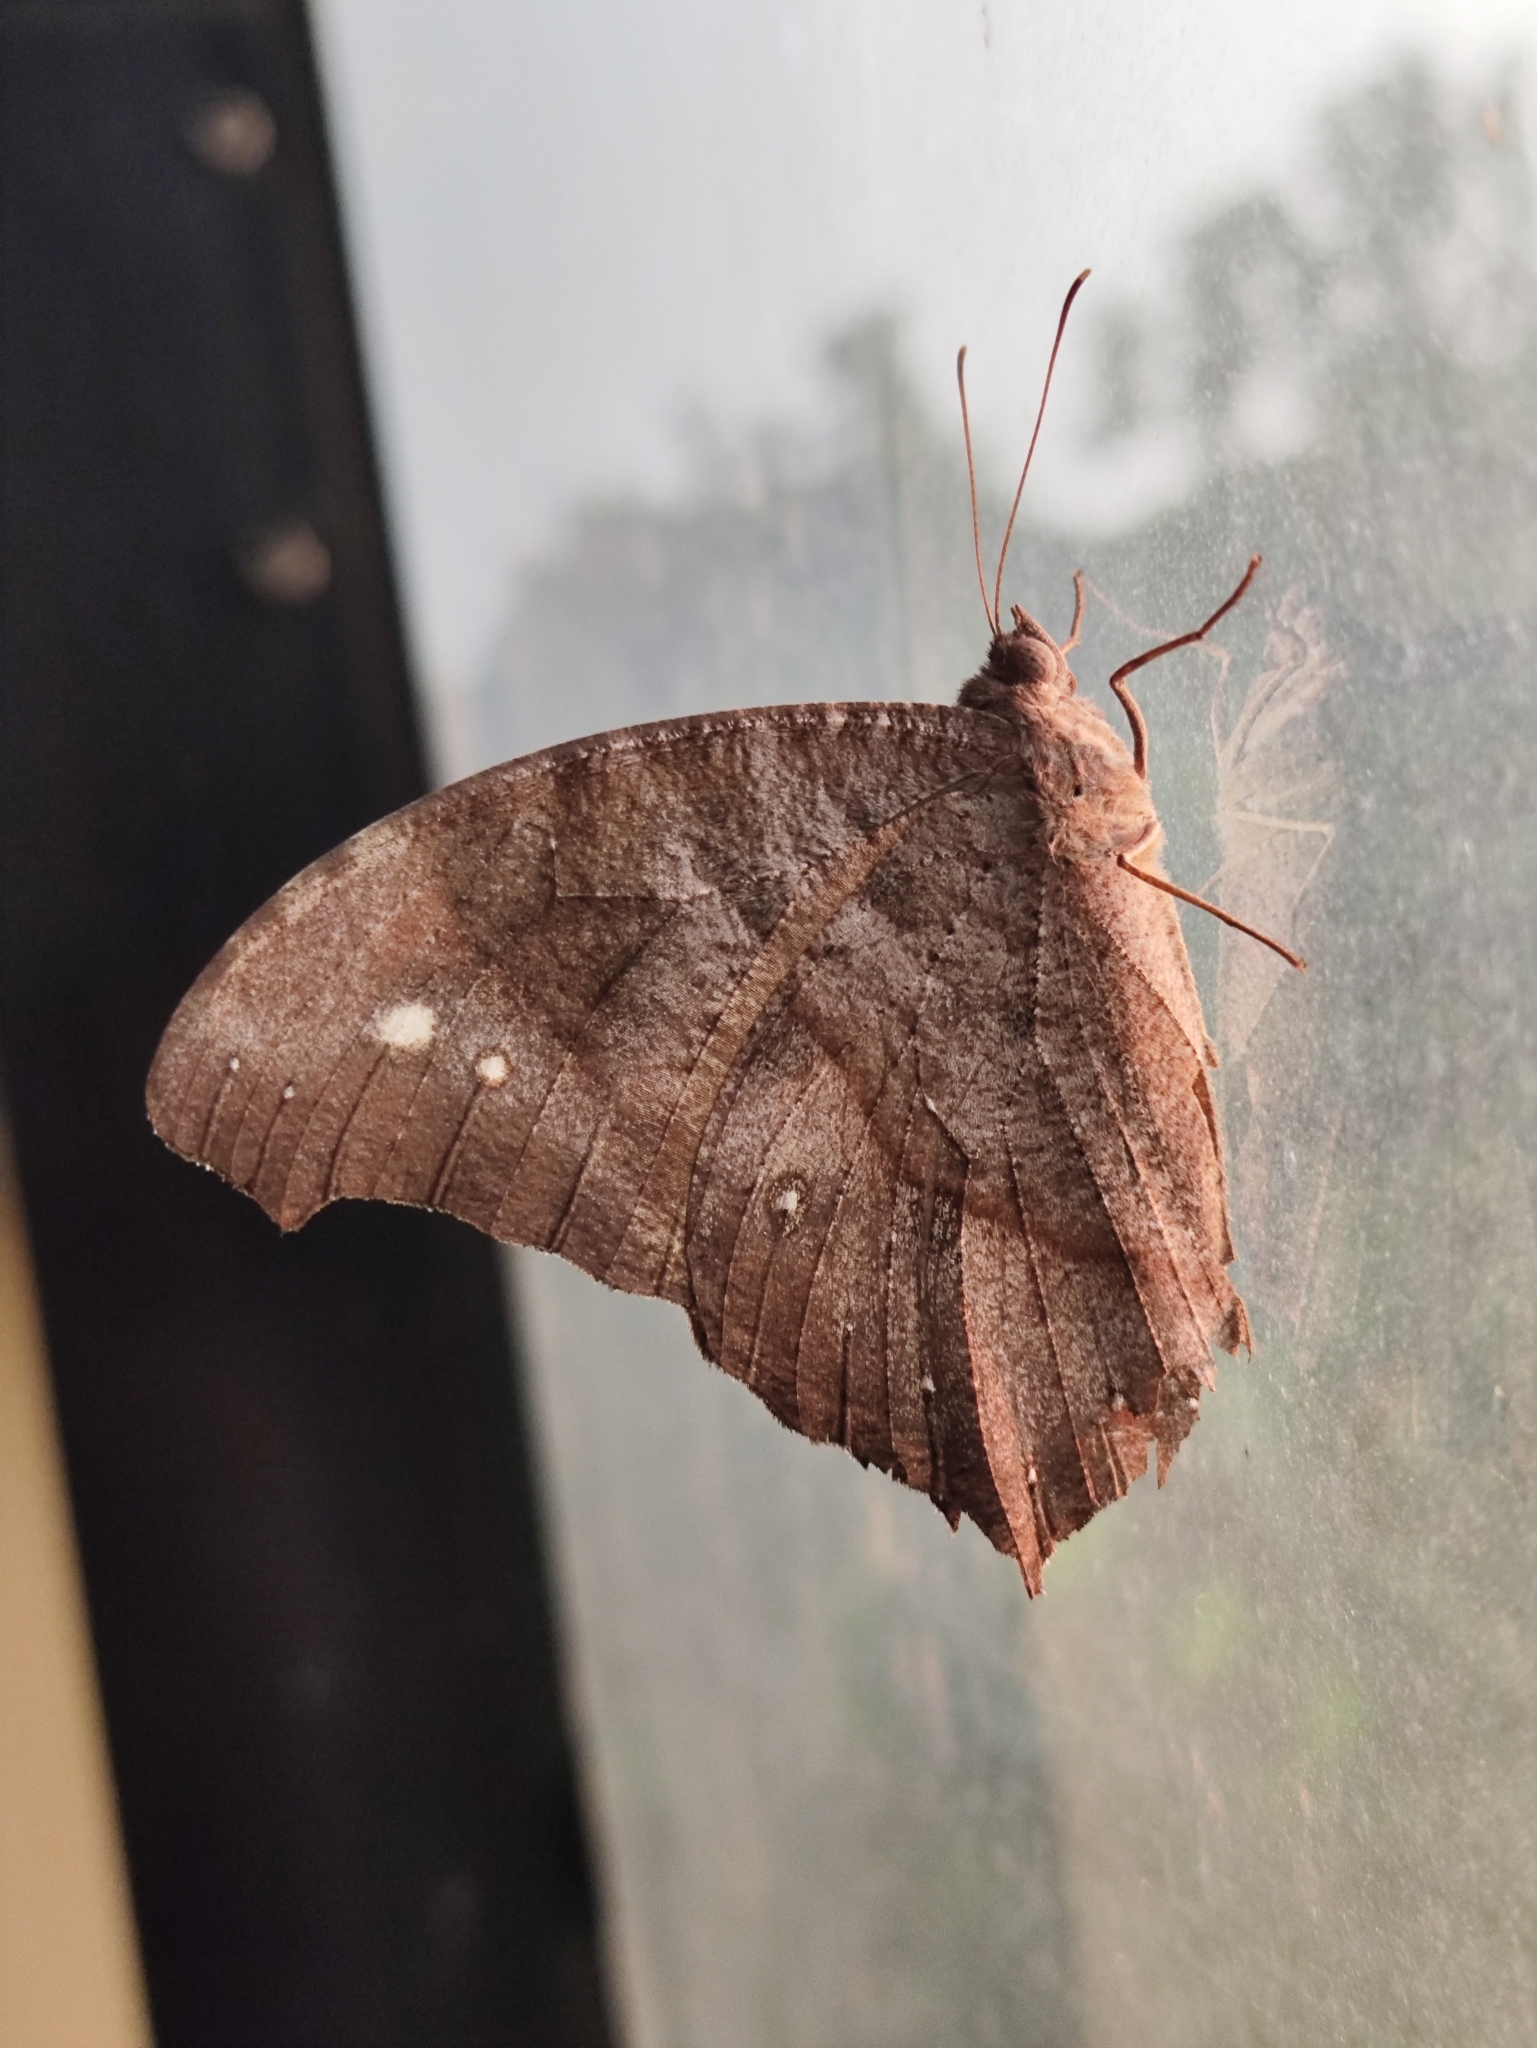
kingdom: Animalia
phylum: Arthropoda
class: Insecta
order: Lepidoptera
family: Nymphalidae
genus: Melanitis
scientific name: Melanitis leda
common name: Twilight brown
